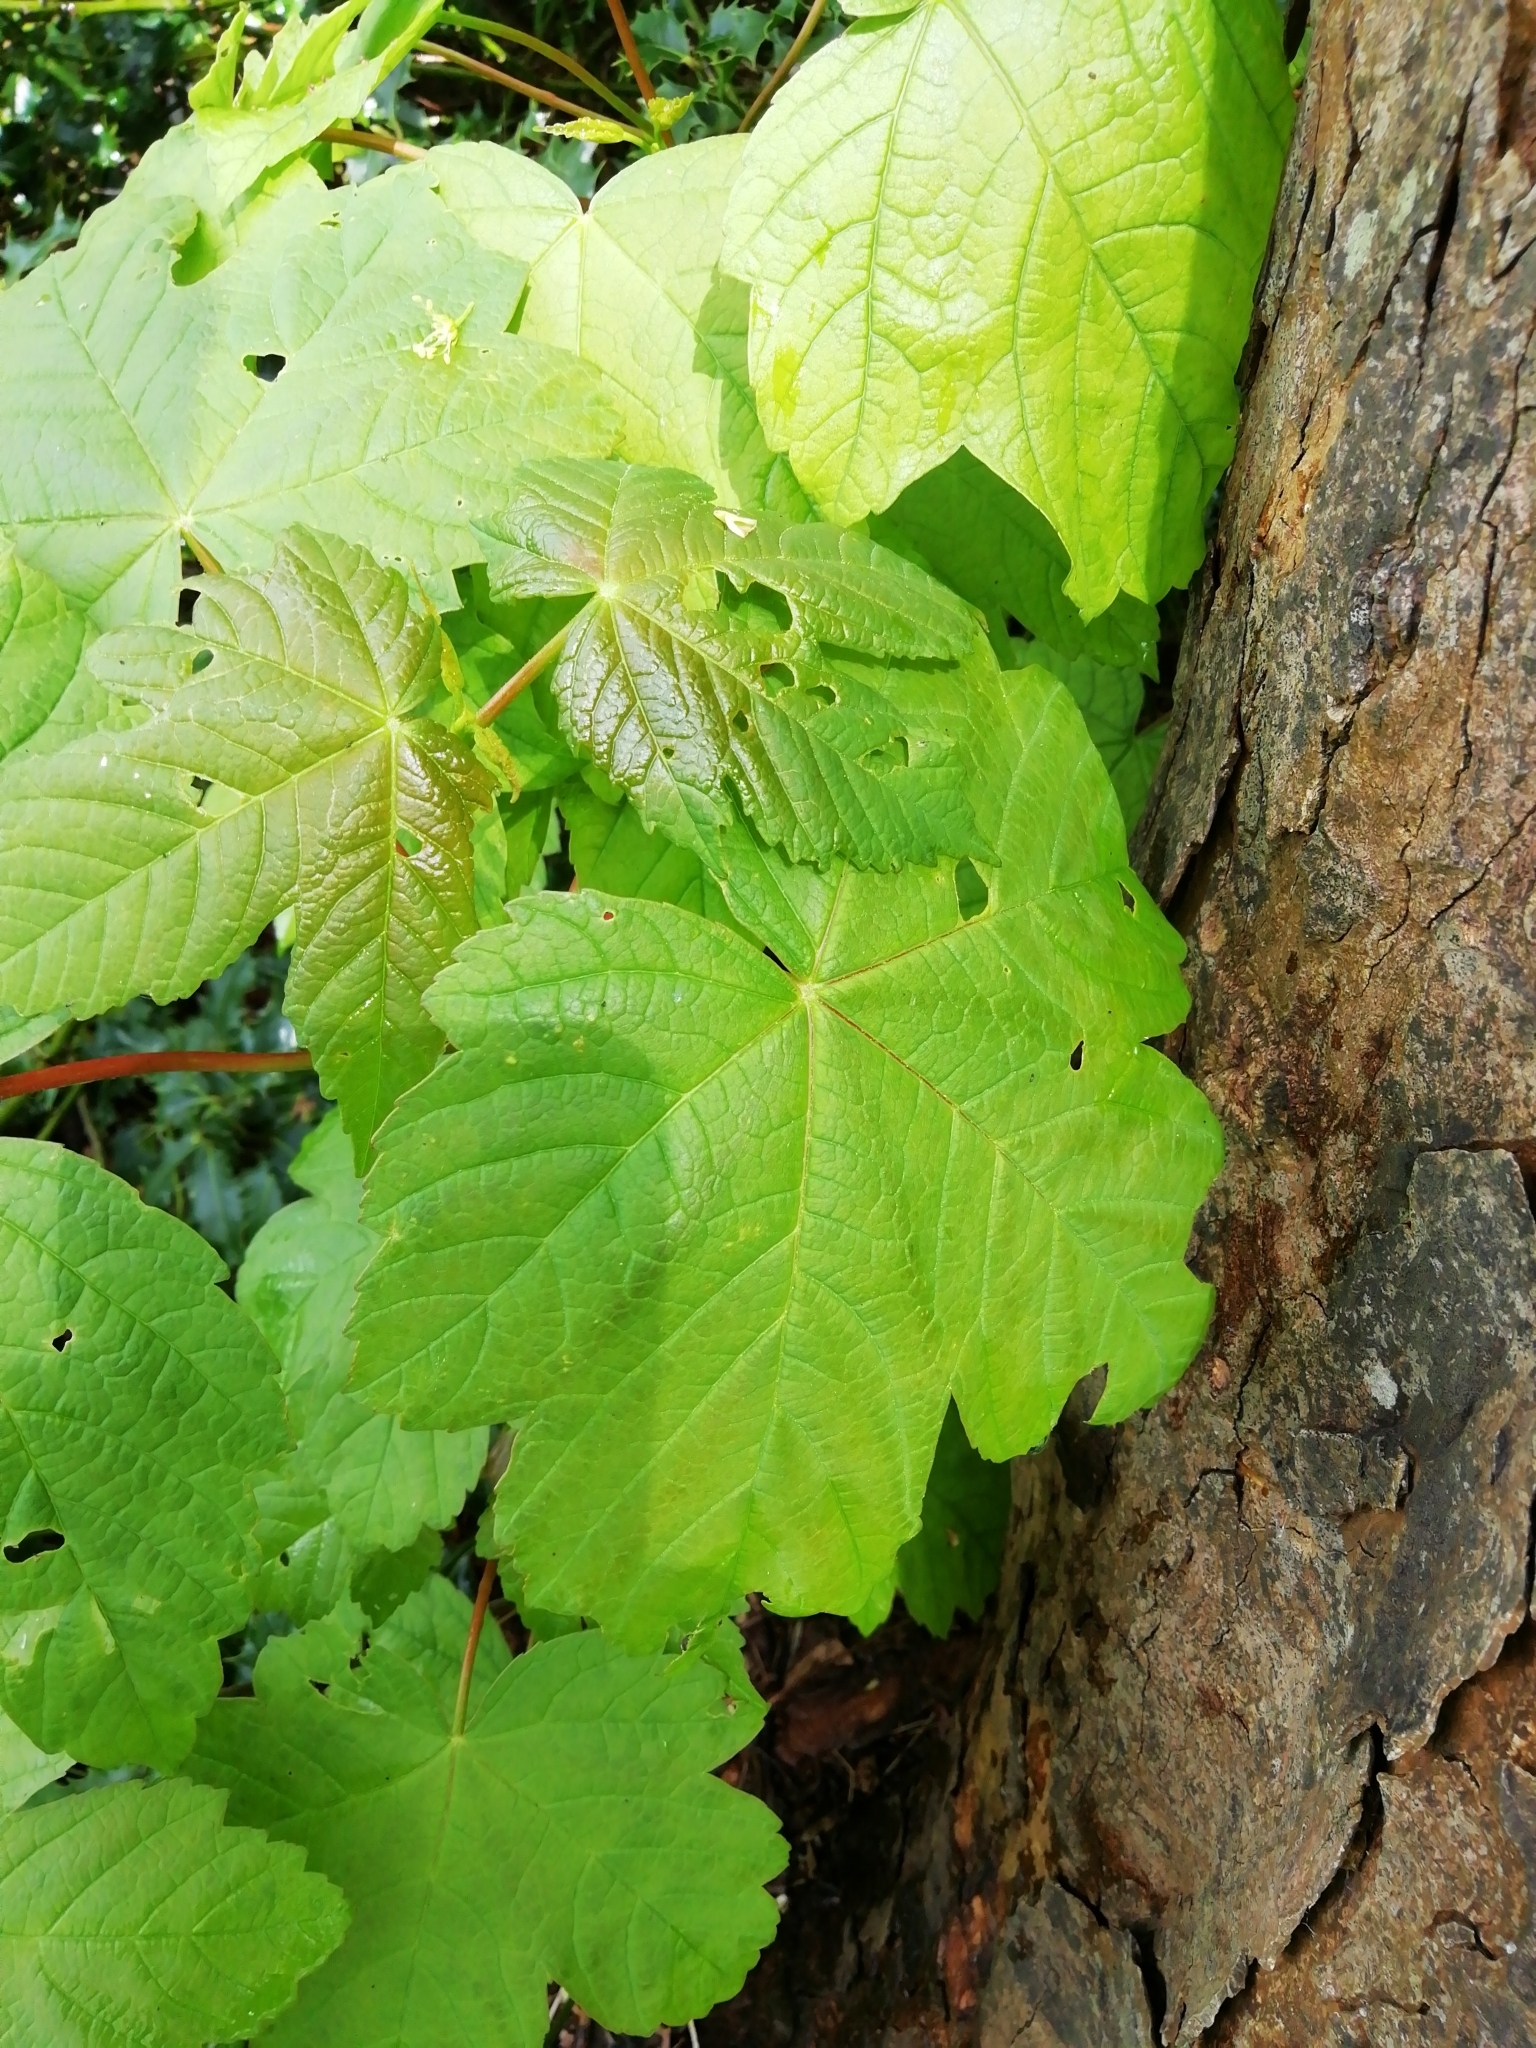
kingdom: Plantae
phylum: Tracheophyta
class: Magnoliopsida
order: Sapindales
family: Sapindaceae
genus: Acer
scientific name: Acer pseudoplatanus
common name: Sycamore
